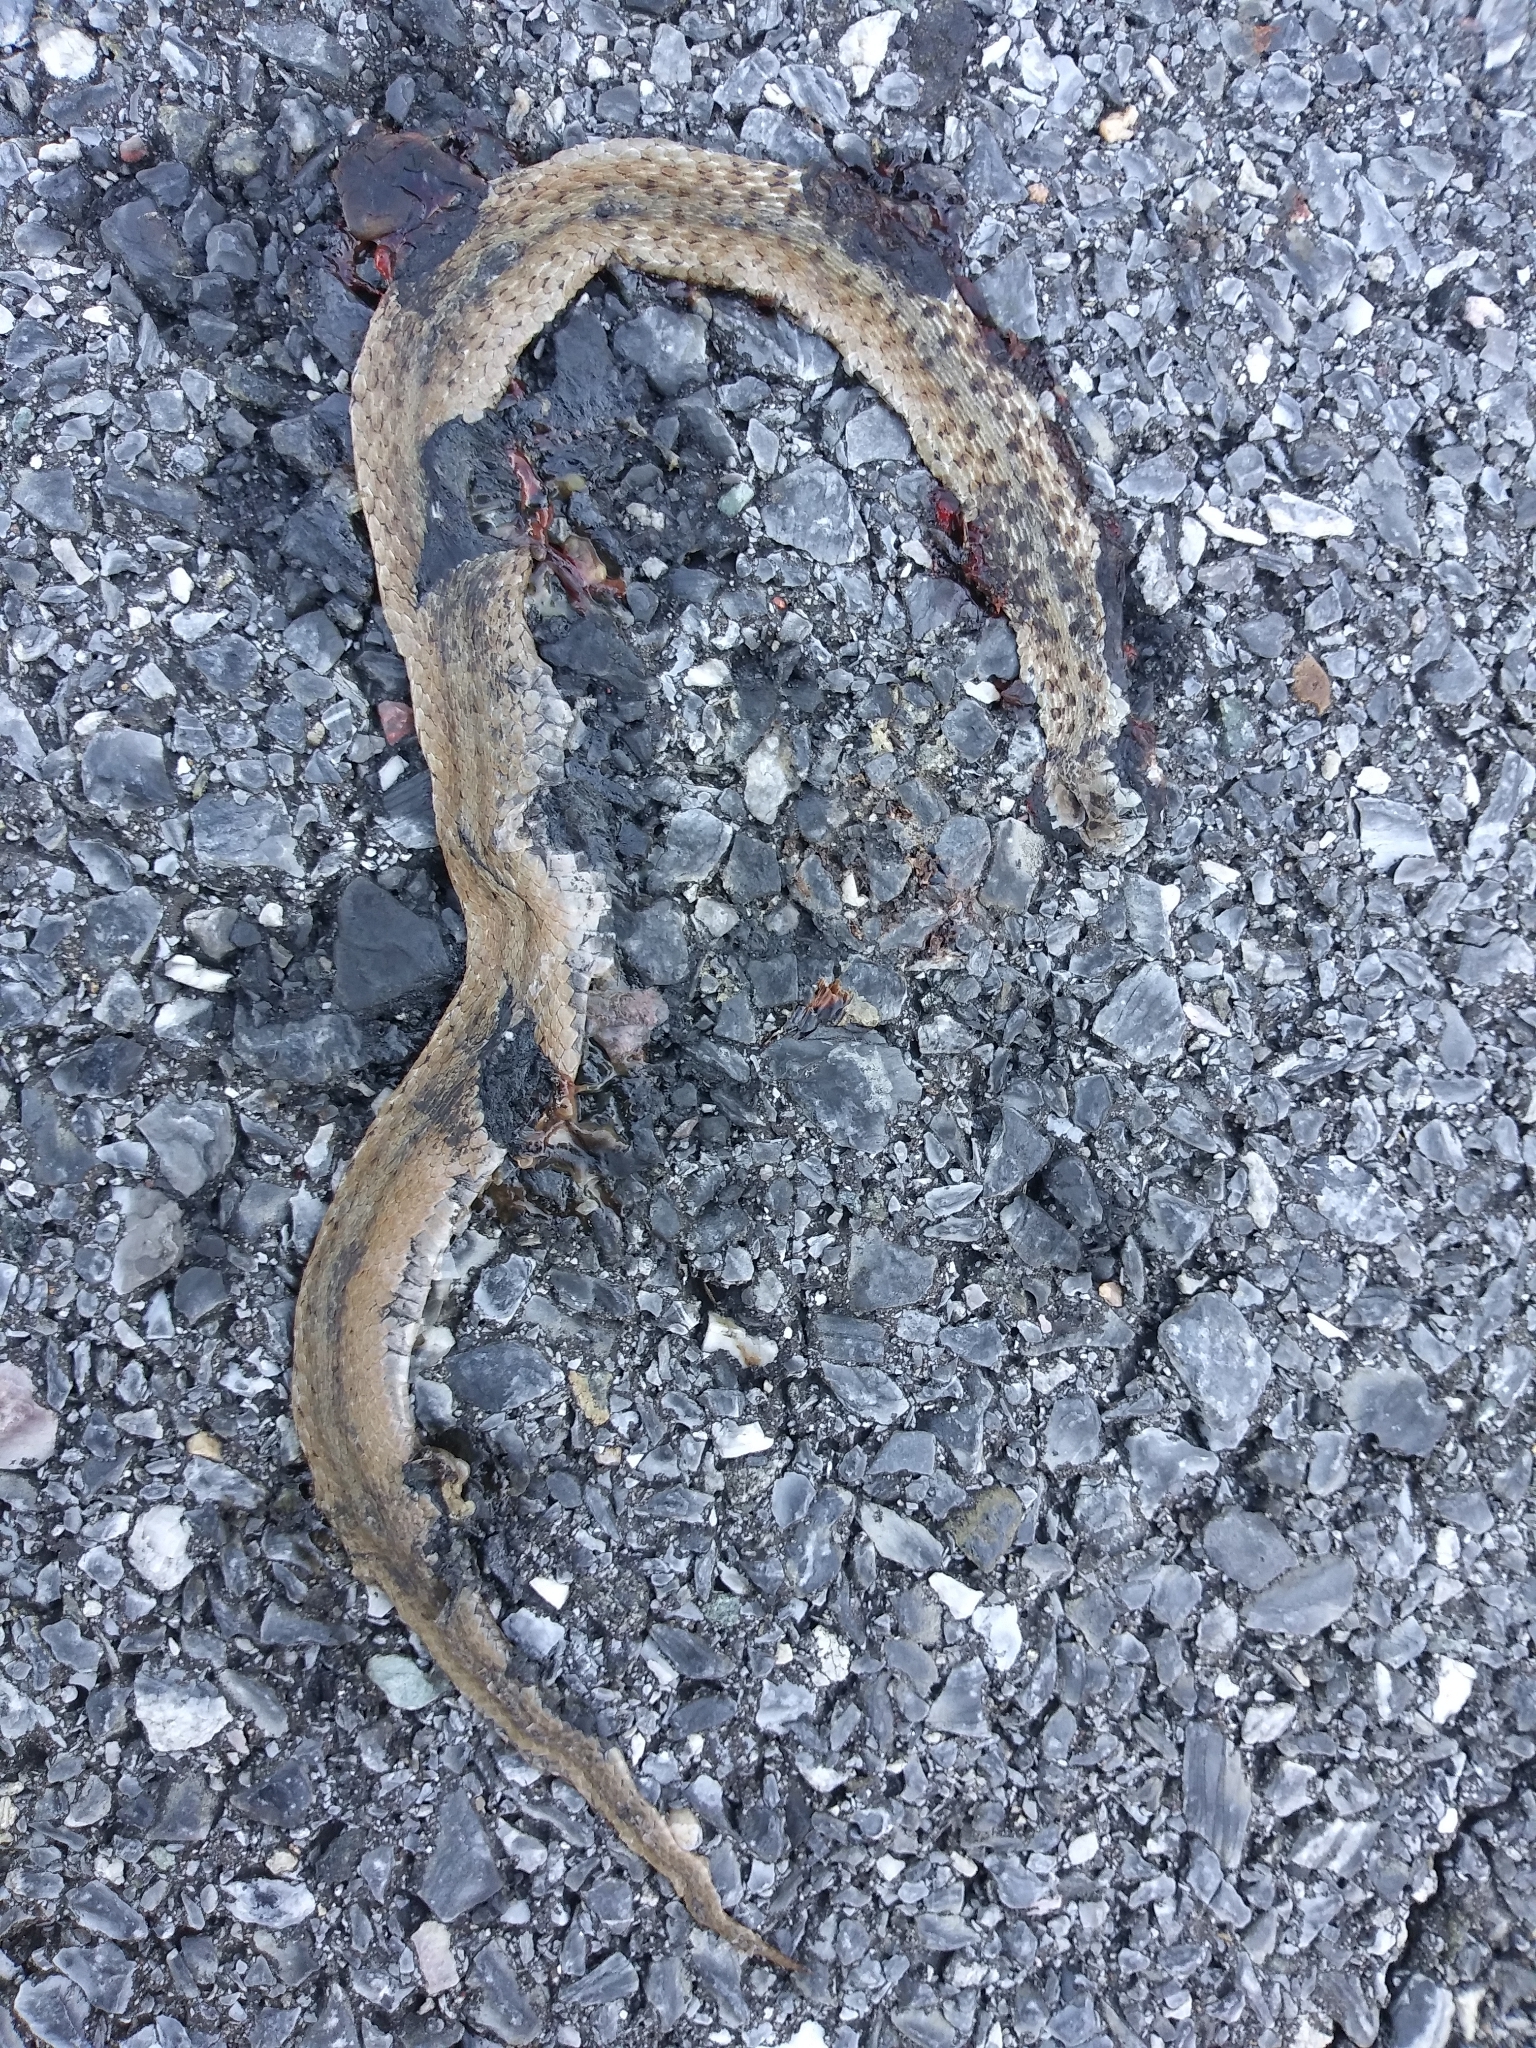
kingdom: Animalia
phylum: Chordata
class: Squamata
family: Colubridae
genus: Storeria
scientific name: Storeria dekayi
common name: (dekay’s) brown snake
